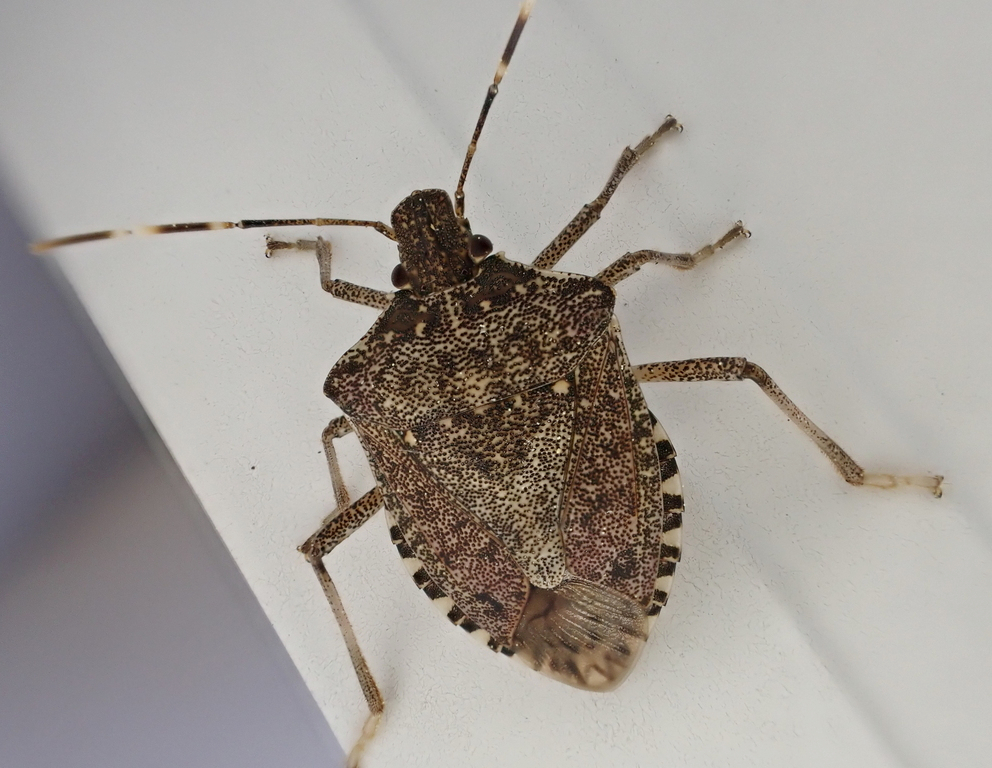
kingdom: Animalia
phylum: Arthropoda
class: Insecta
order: Hemiptera
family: Pentatomidae
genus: Halyomorpha
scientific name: Halyomorpha halys
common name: Brown marmorated stink bug
